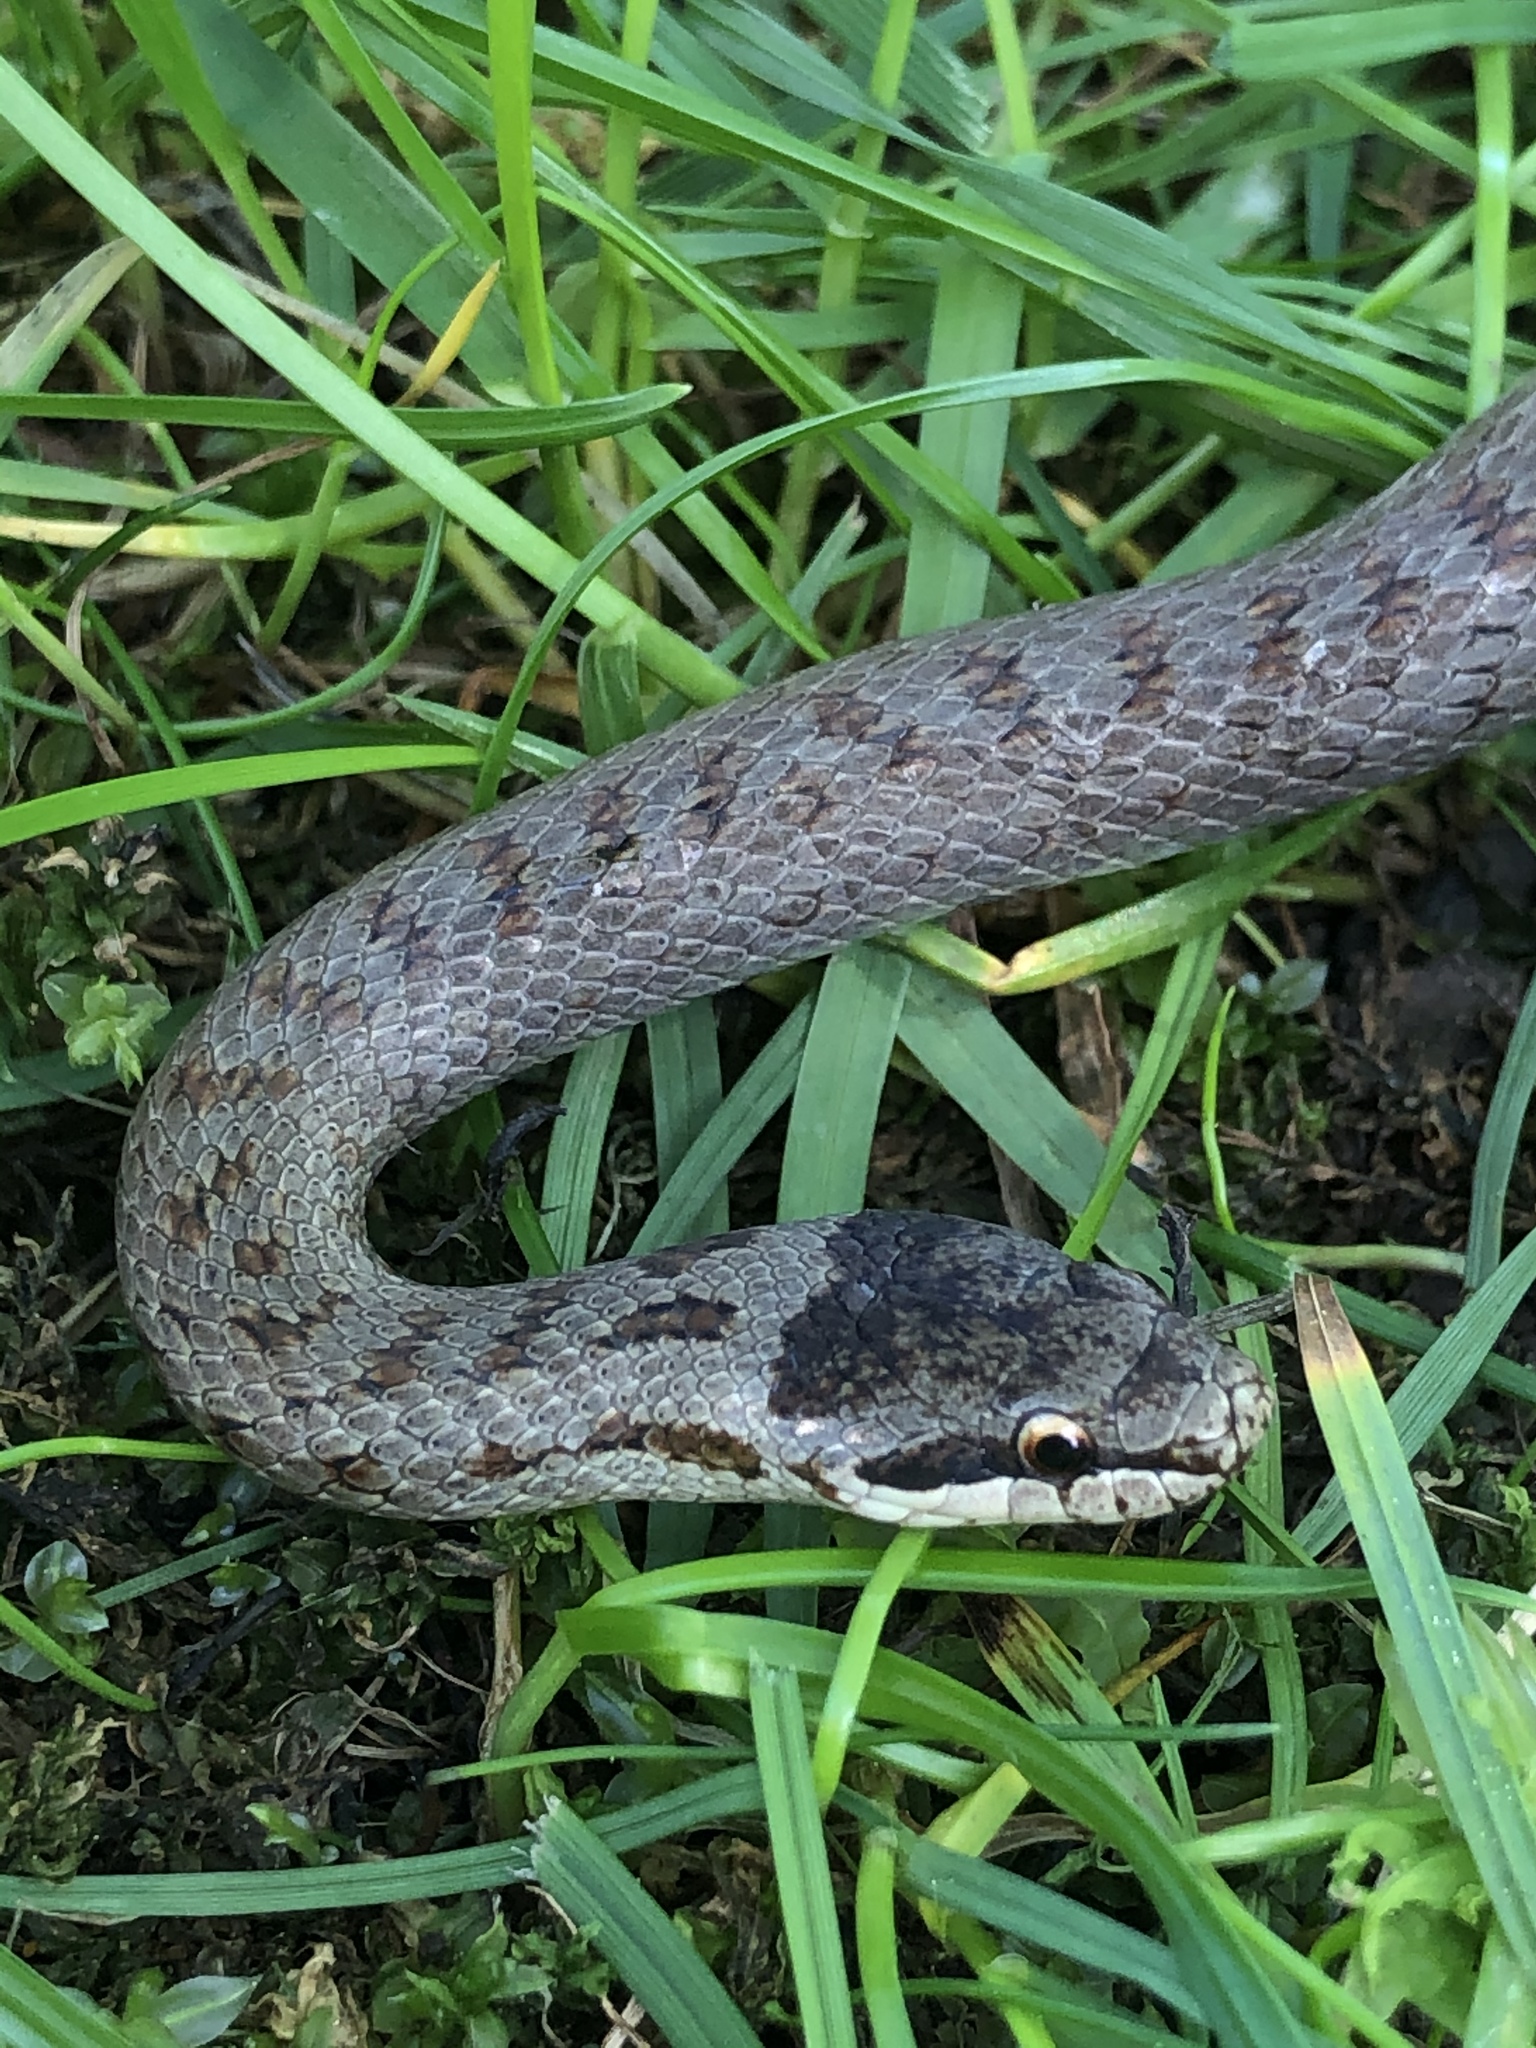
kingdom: Animalia
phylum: Chordata
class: Squamata
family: Colubridae
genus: Coronella
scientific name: Coronella austriaca
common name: Smooth snake
